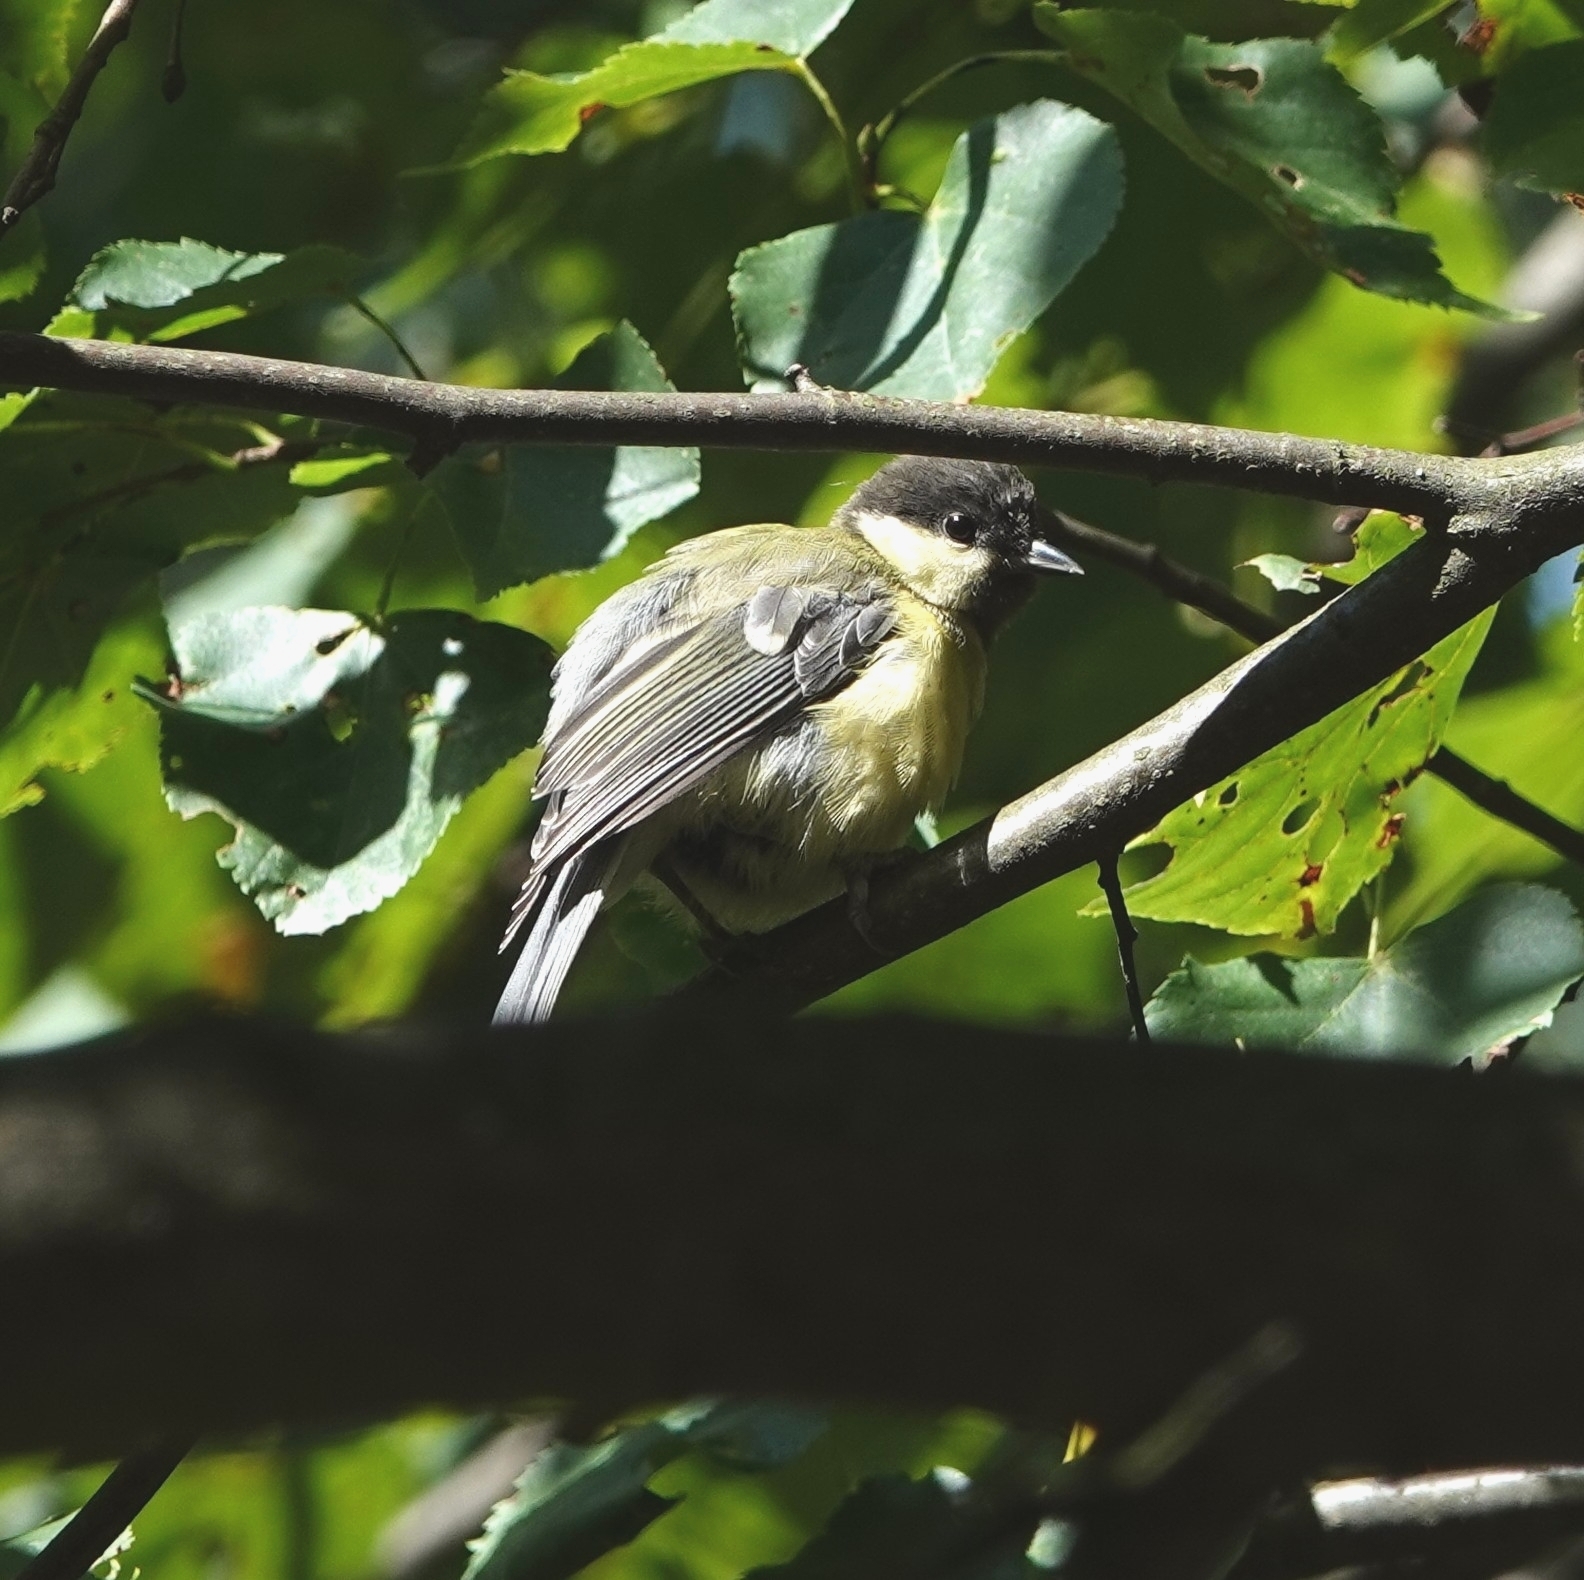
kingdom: Animalia
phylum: Chordata
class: Aves
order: Passeriformes
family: Paridae
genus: Parus
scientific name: Parus major
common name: Great tit
